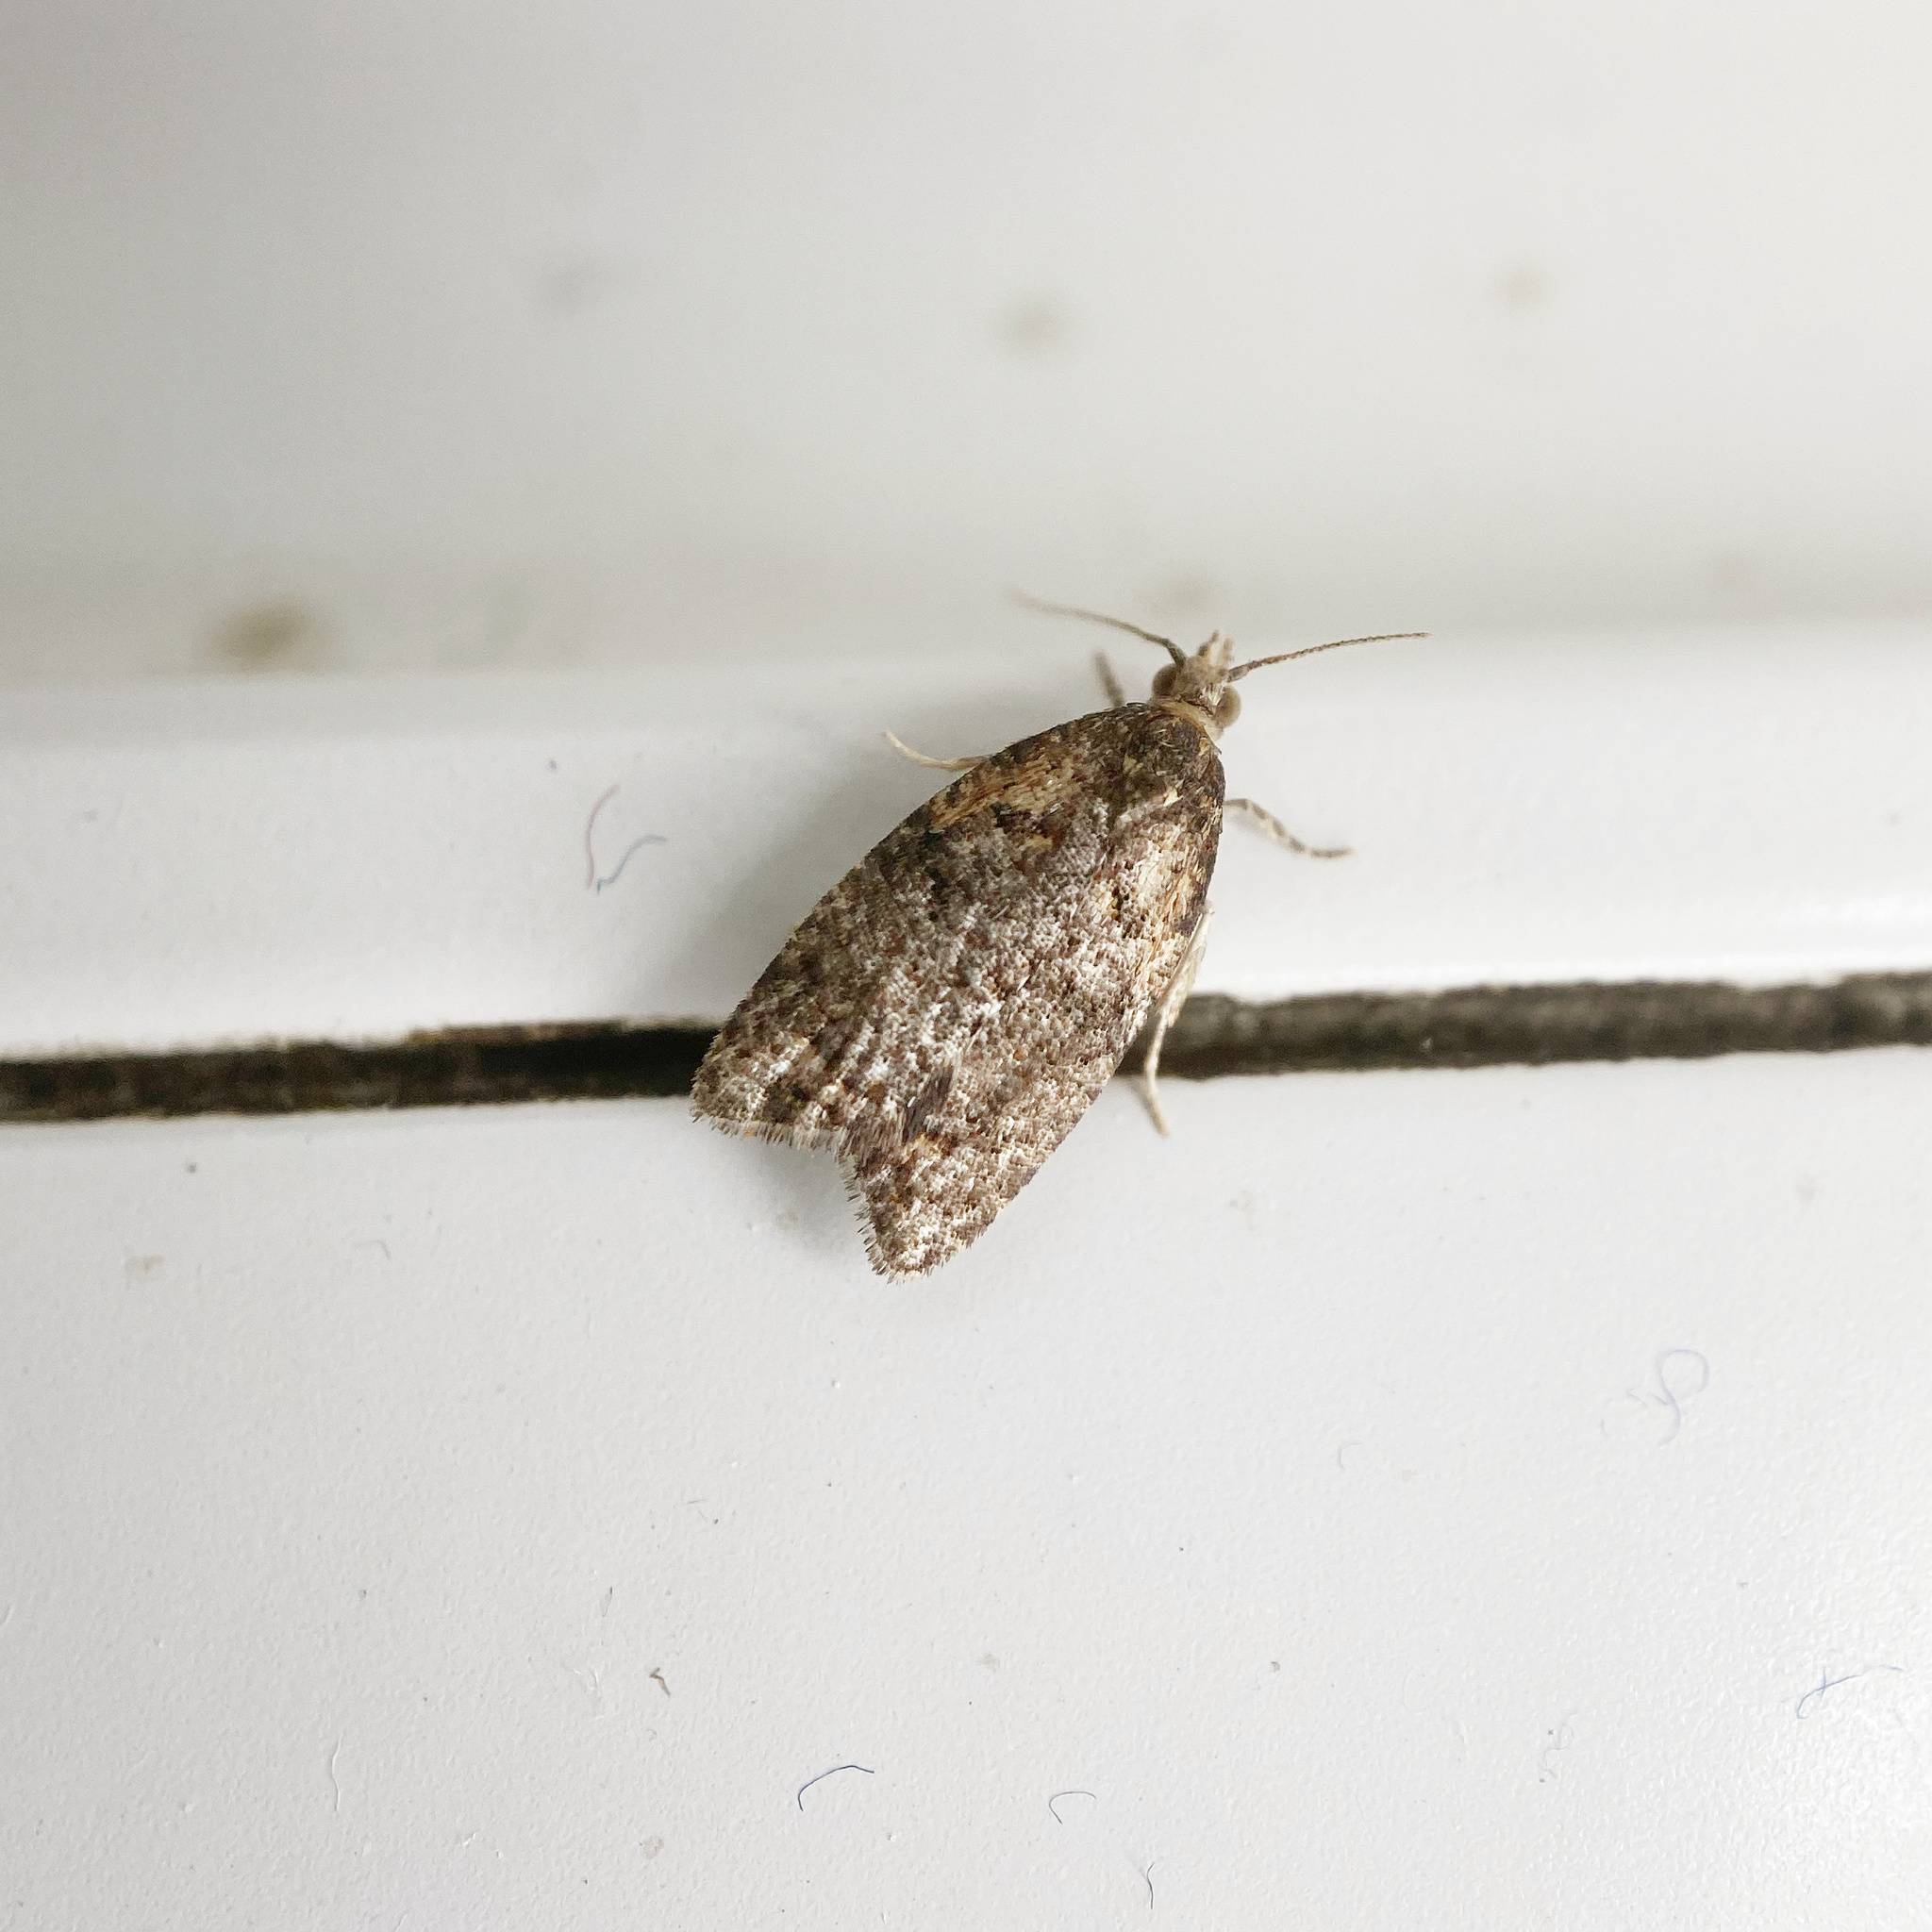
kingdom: Animalia
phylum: Arthropoda
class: Insecta
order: Lepidoptera
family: Tortricidae
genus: Capua
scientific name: Capua intractana
